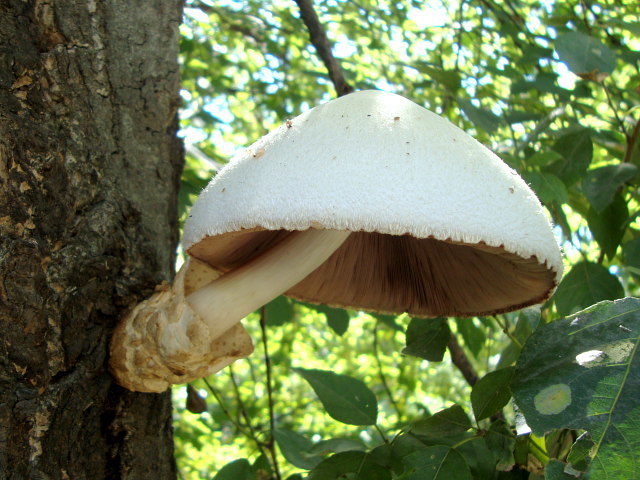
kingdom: Fungi
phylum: Basidiomycota
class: Agaricomycetes
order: Agaricales
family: Pluteaceae
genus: Volvariella
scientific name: Volvariella bombycina
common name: Silky rosegill
